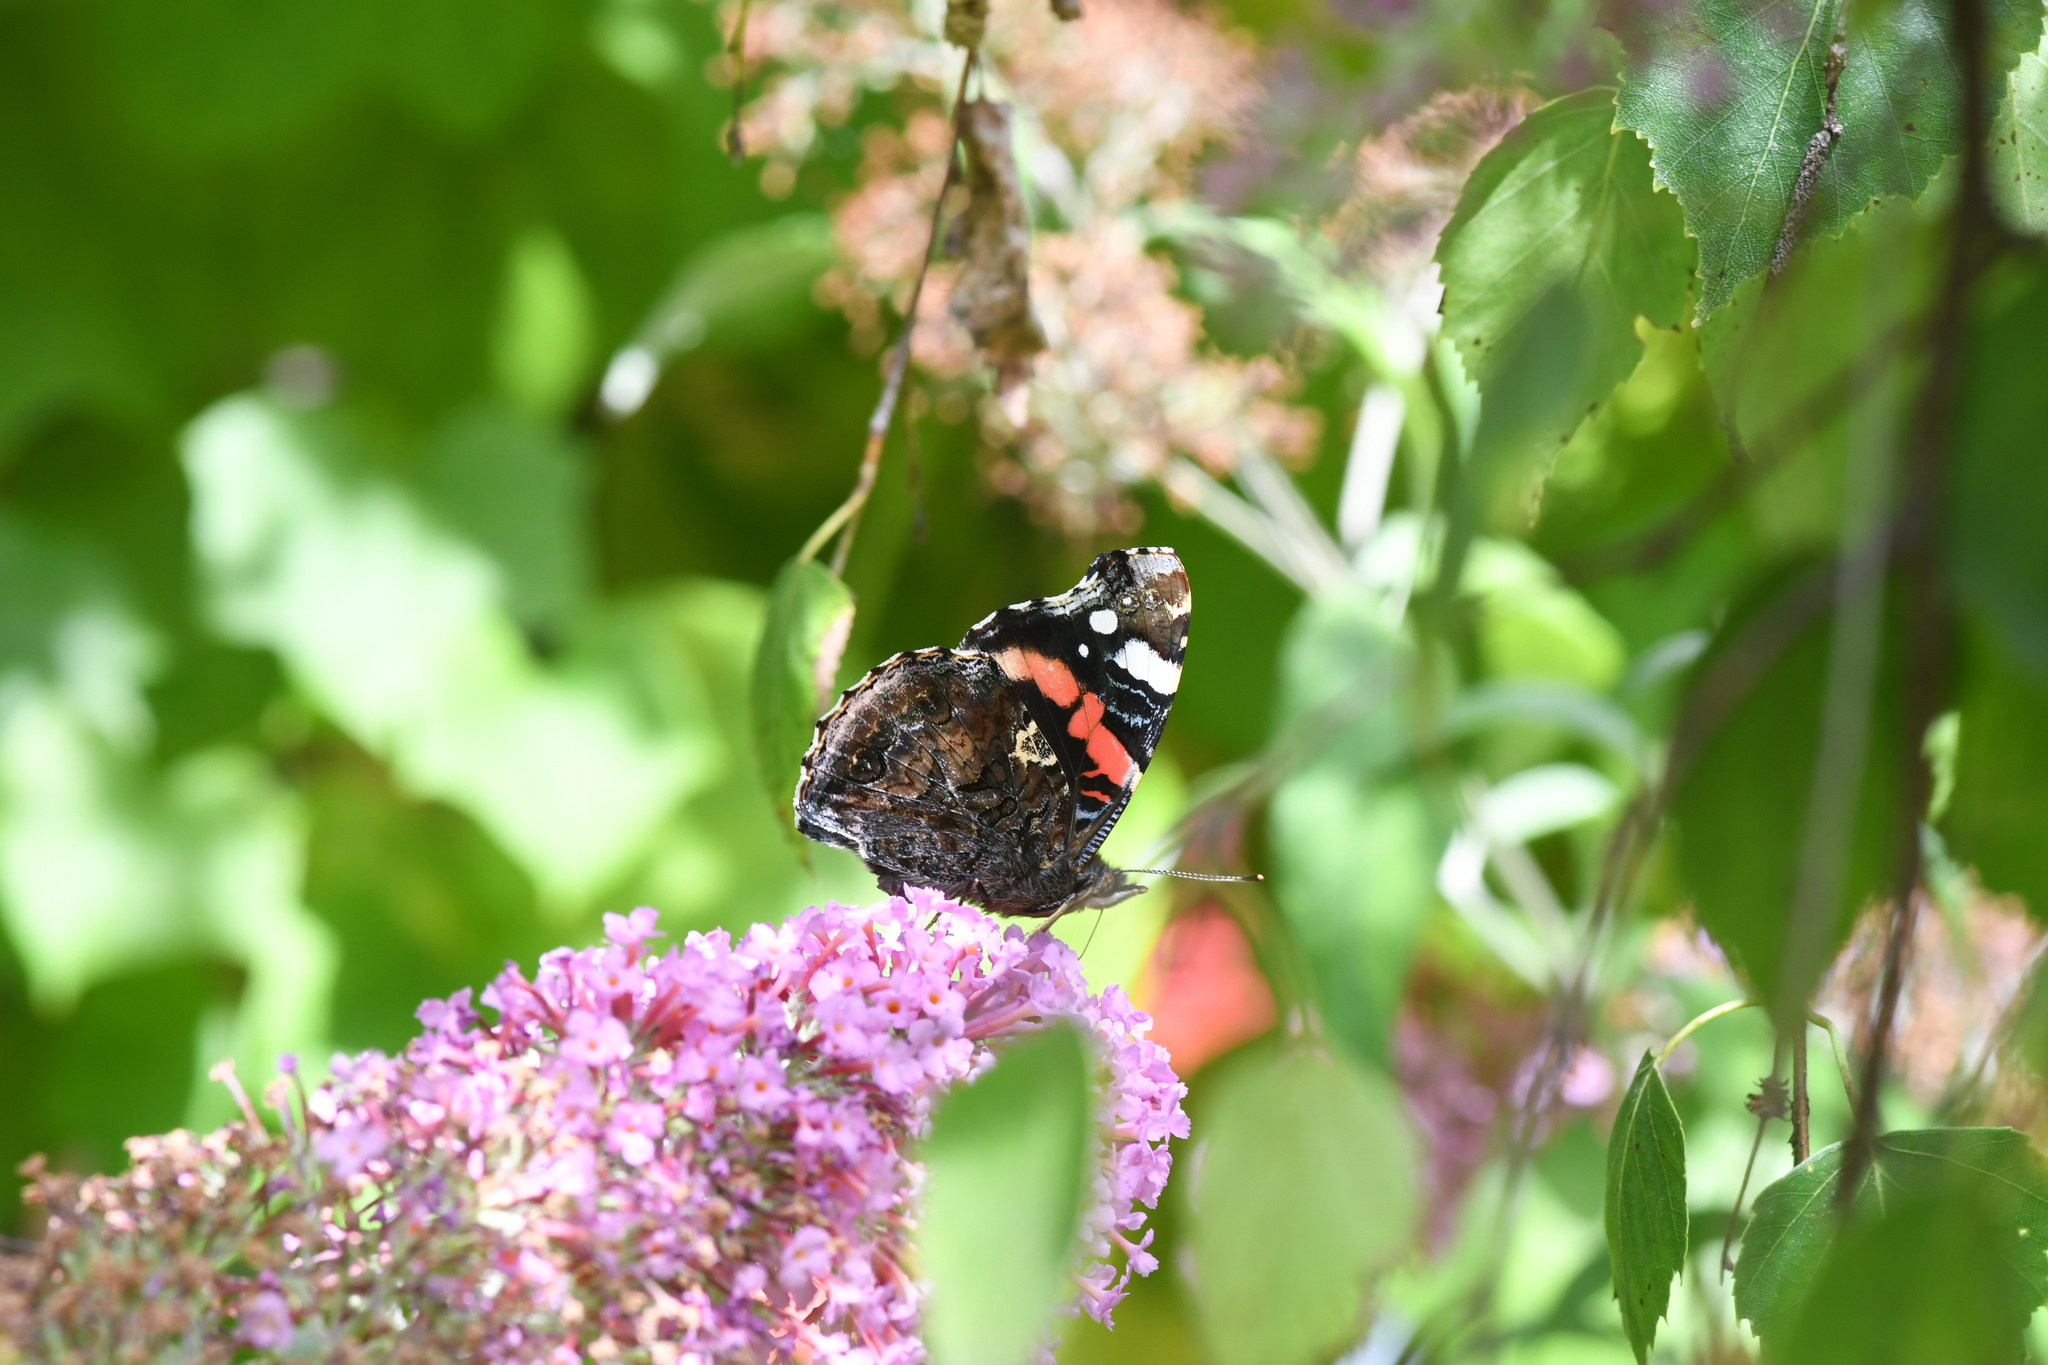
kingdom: Animalia
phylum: Arthropoda
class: Insecta
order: Lepidoptera
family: Nymphalidae
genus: Vanessa
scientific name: Vanessa atalanta
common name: Red admiral
